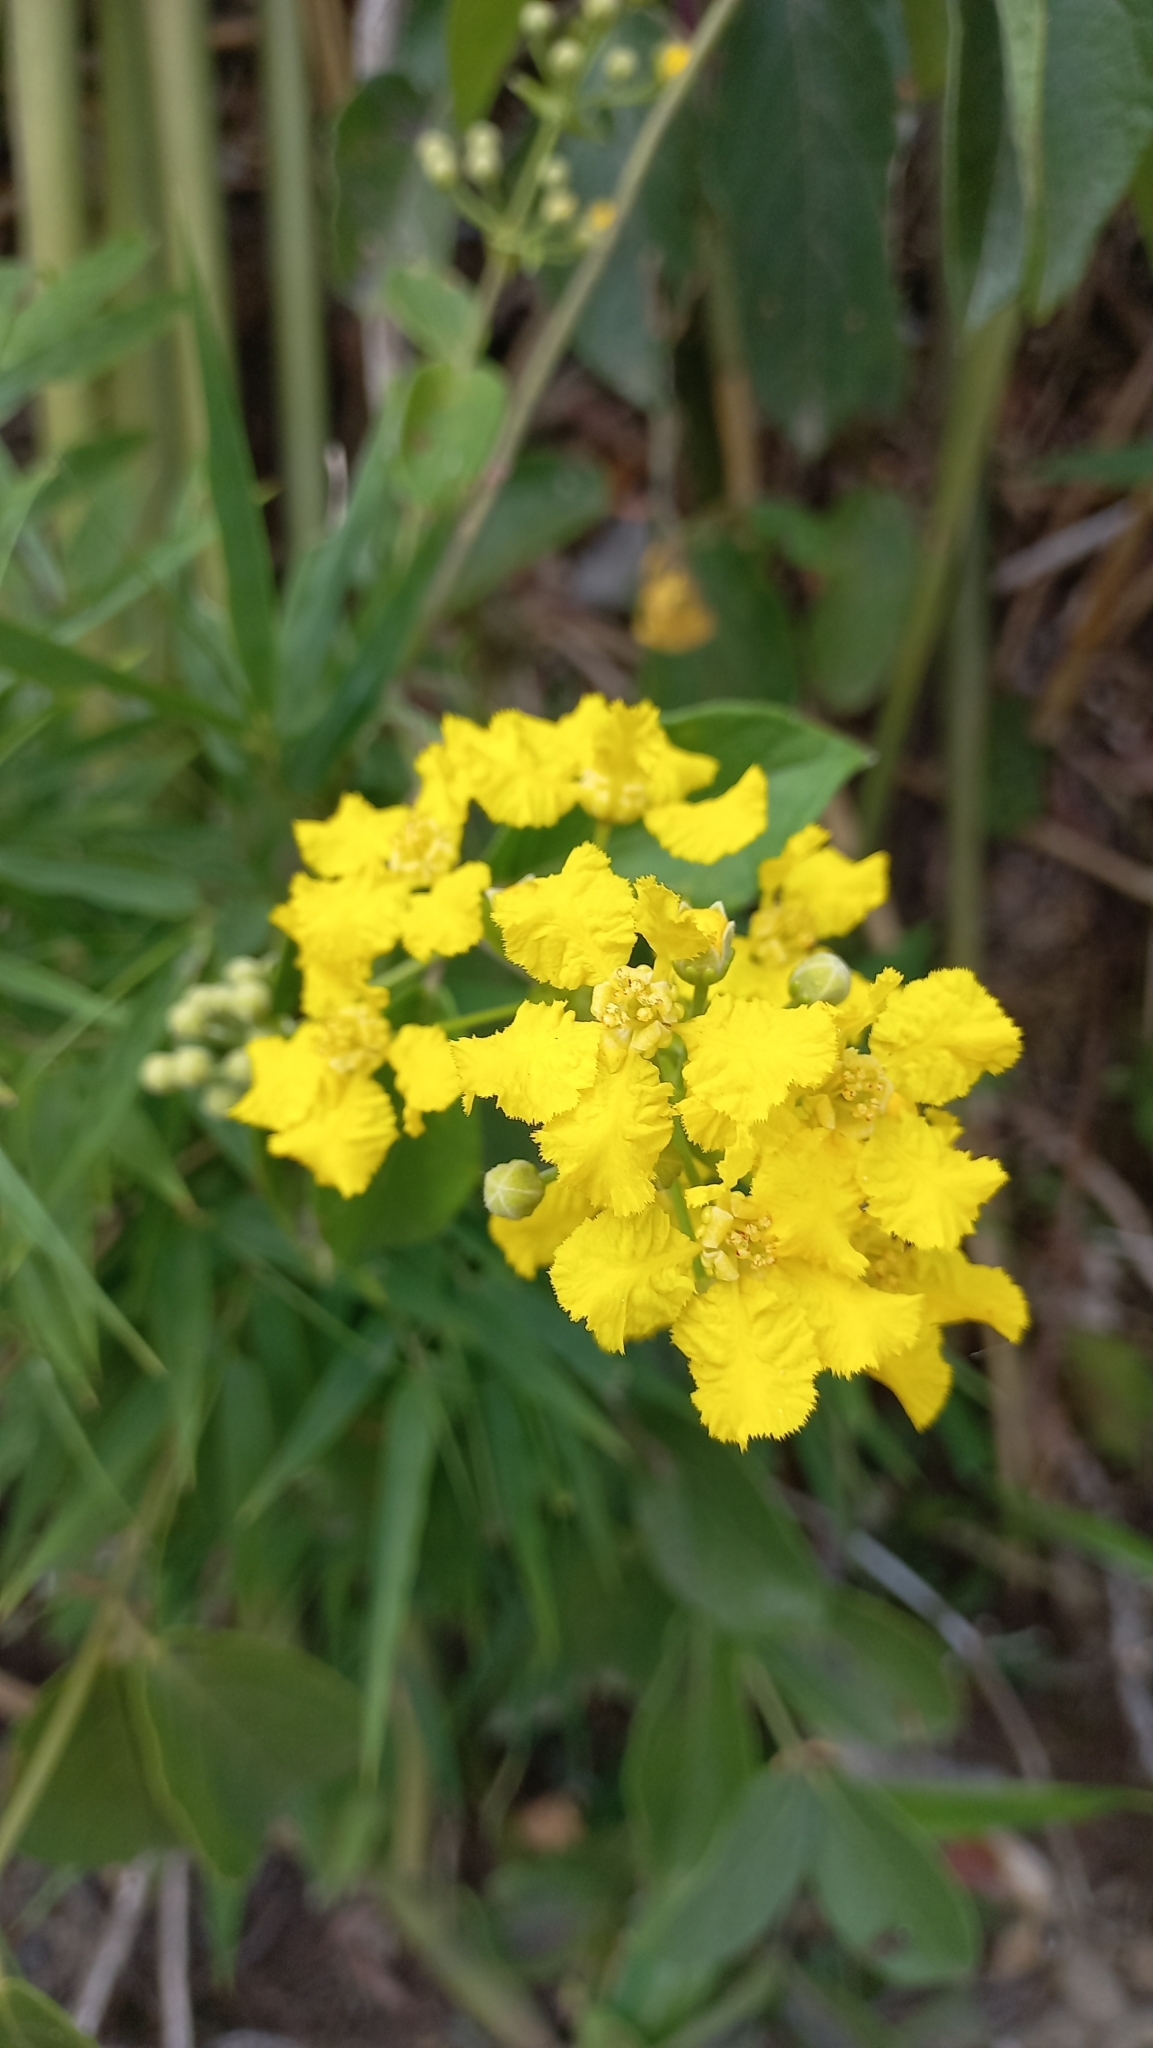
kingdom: Plantae
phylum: Tracheophyta
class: Magnoliopsida
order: Malpighiales
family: Malpighiaceae
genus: Peixotoa
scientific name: Peixotoa catarinensis
